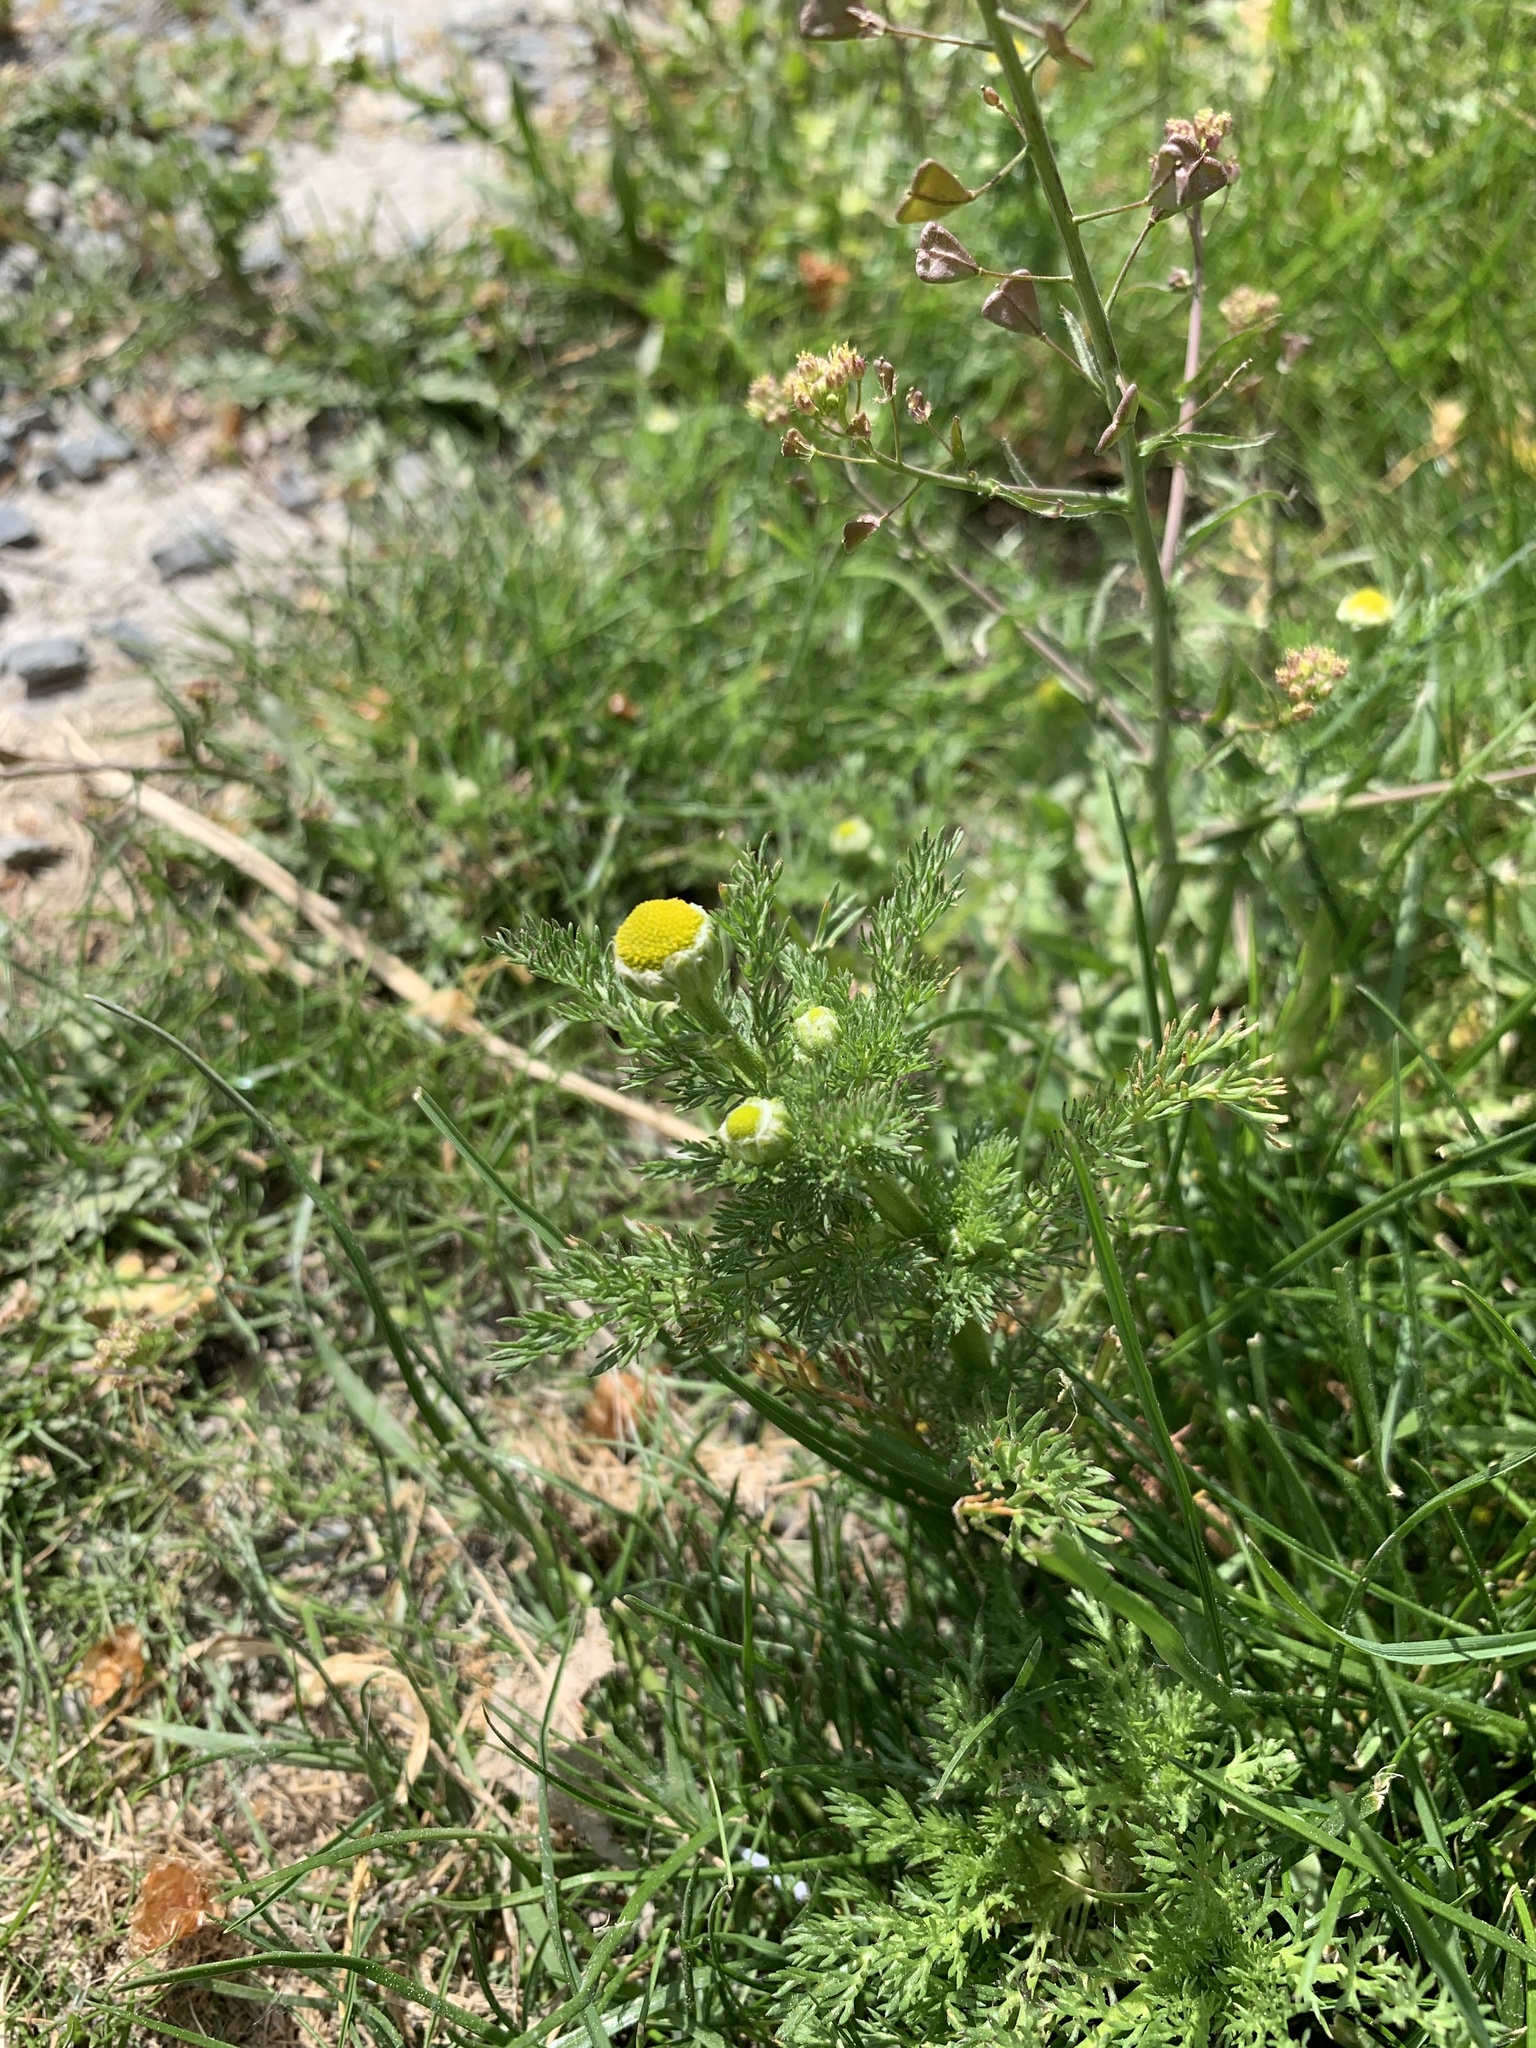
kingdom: Plantae
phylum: Tracheophyta
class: Magnoliopsida
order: Asterales
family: Asteraceae
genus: Matricaria
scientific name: Matricaria discoidea
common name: Disc mayweed
